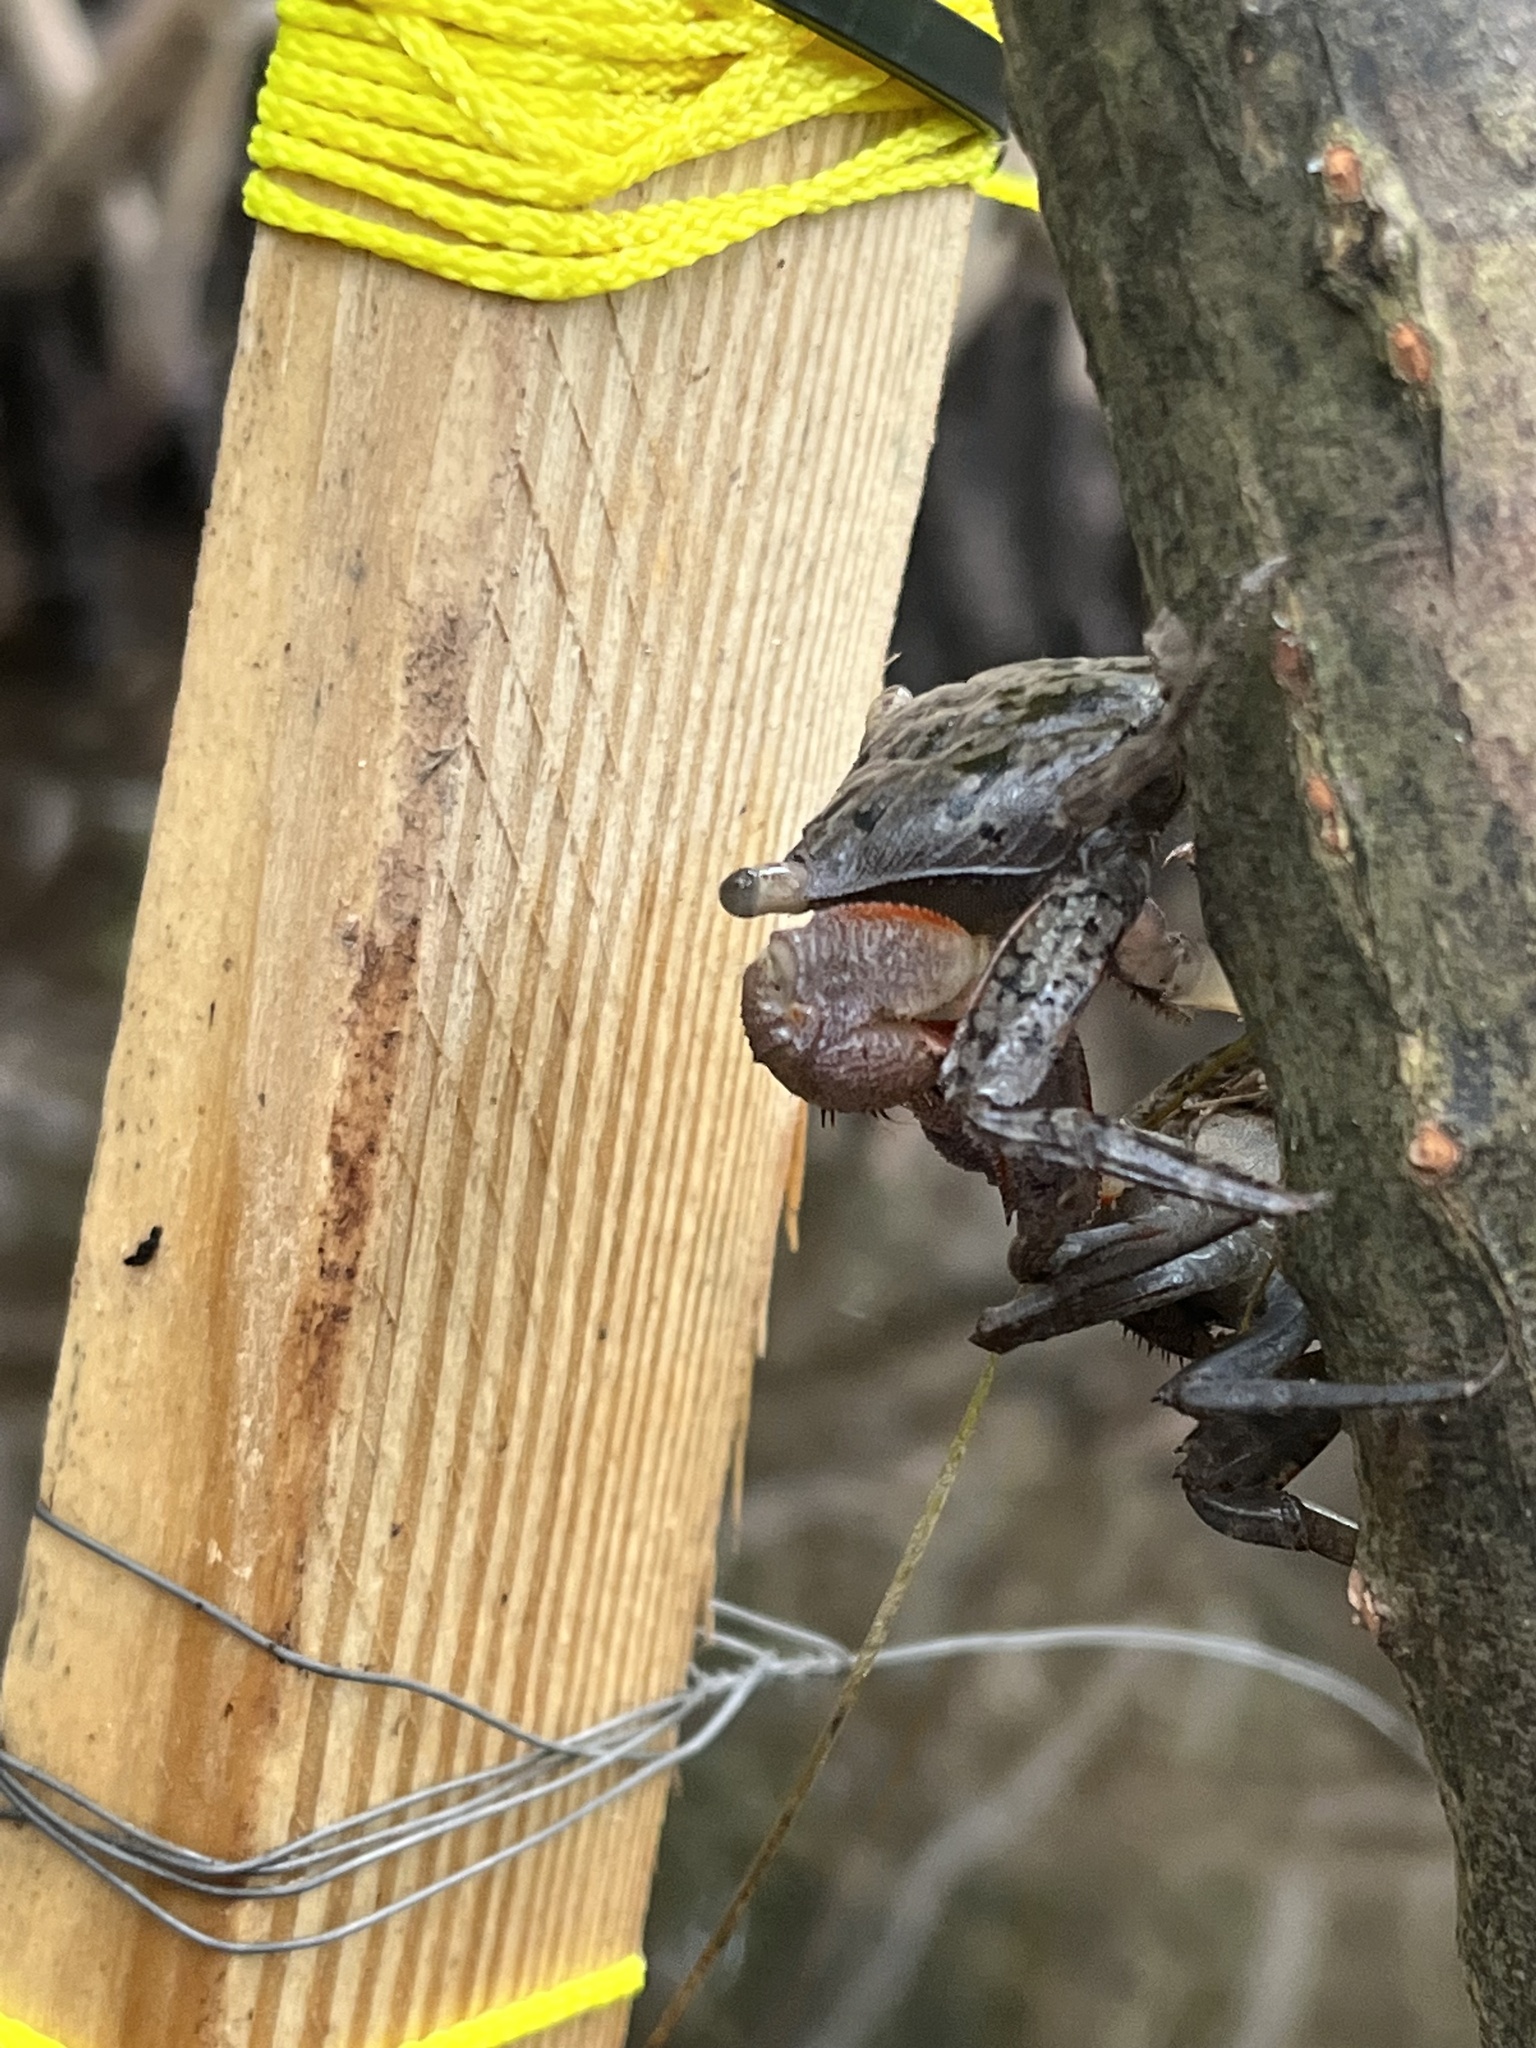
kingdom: Animalia
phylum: Arthropoda
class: Malacostraca
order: Decapoda
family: Sesarmidae
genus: Aratus
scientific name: Aratus pisonii
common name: Mangrove crab
